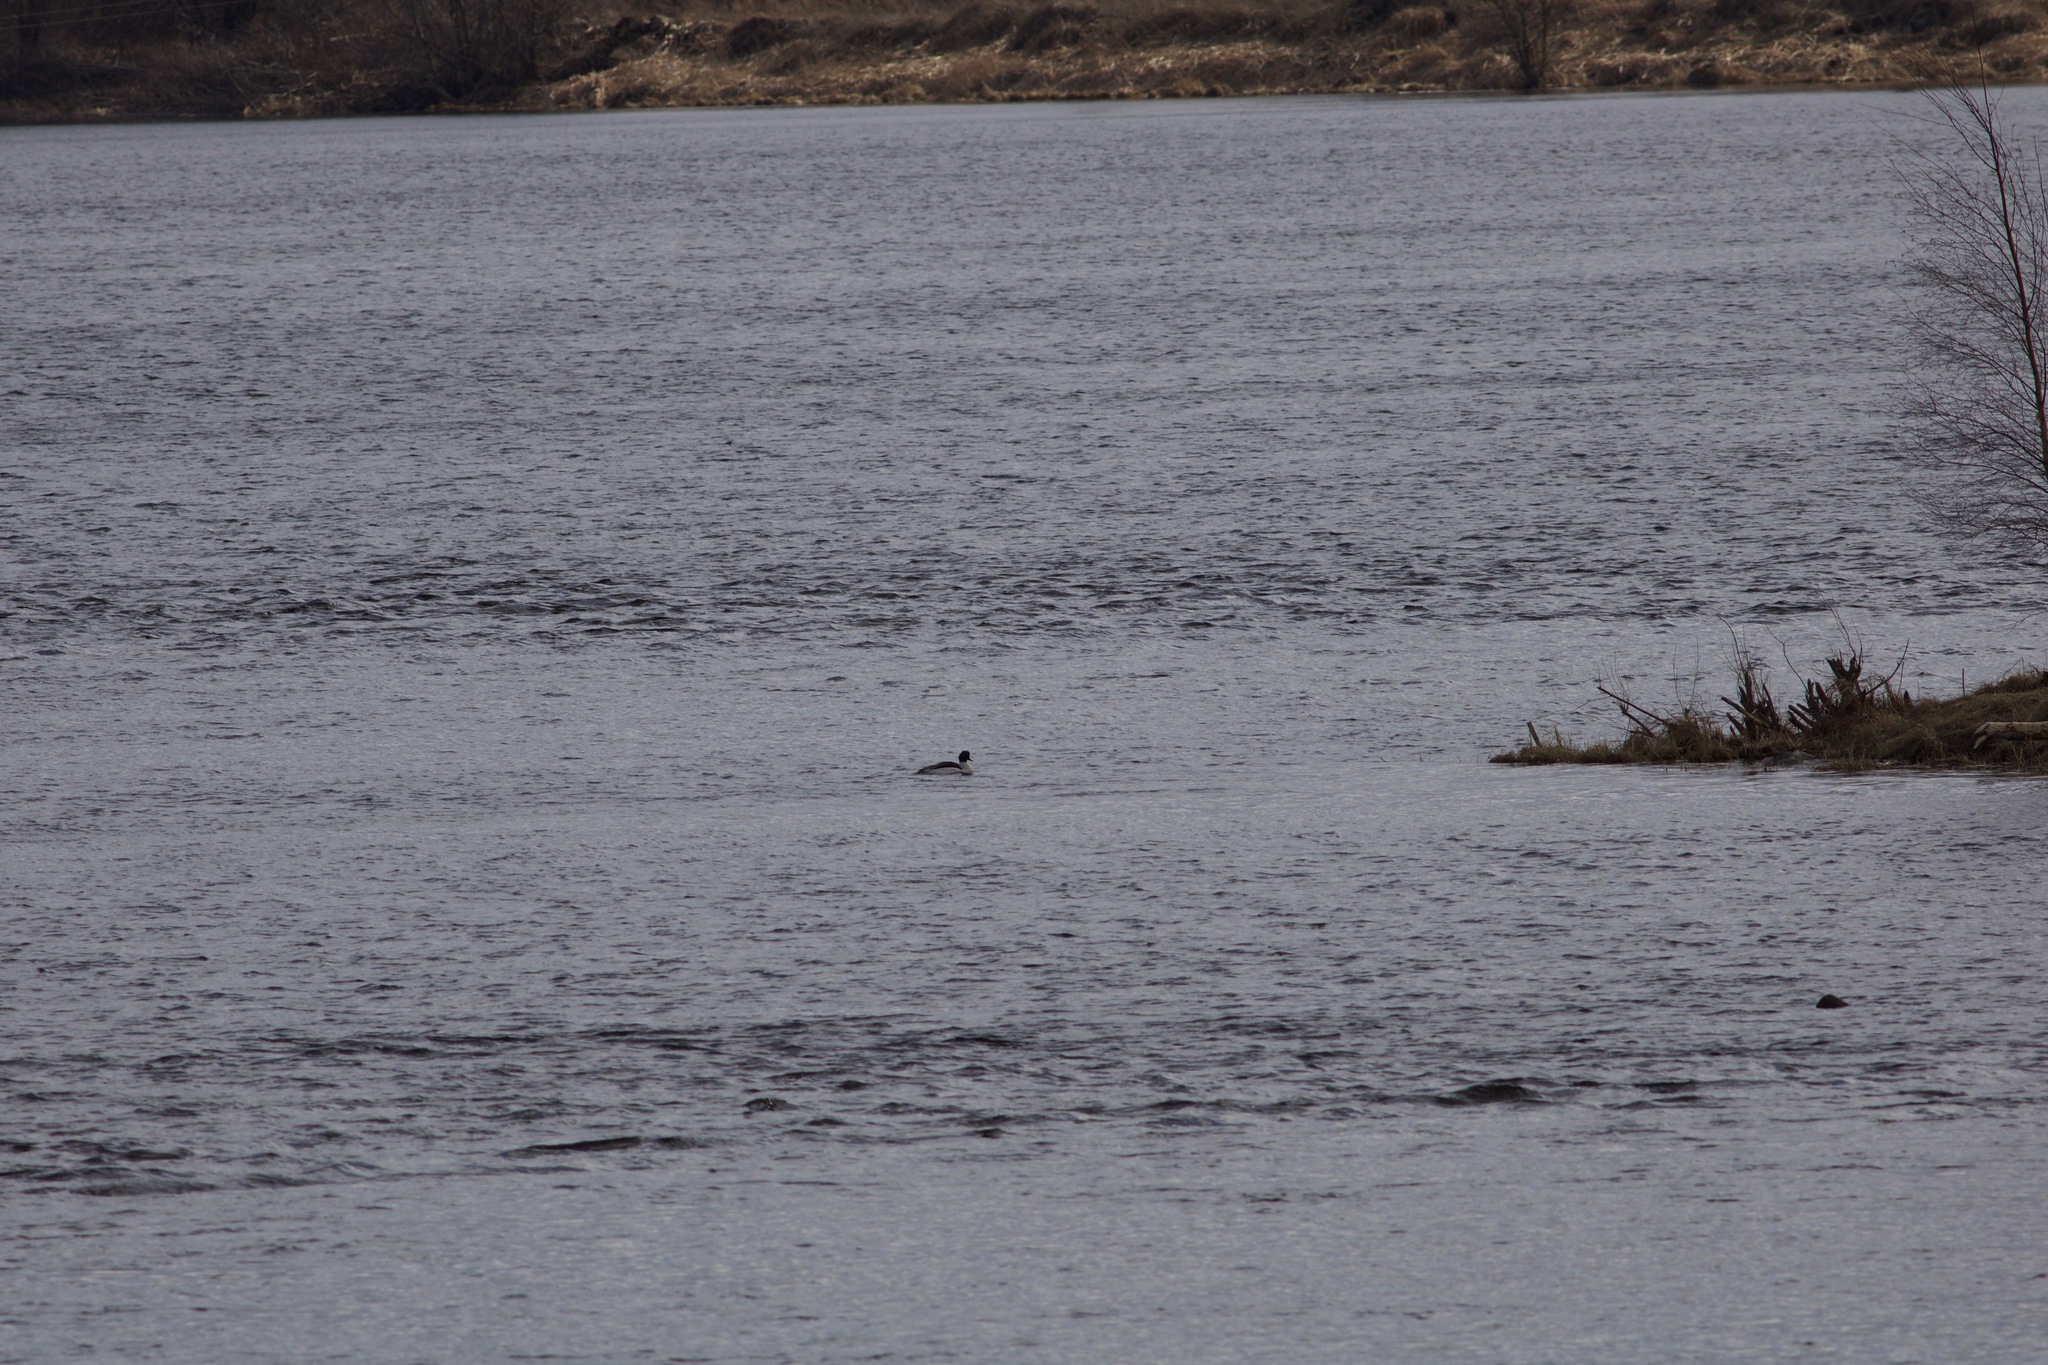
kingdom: Animalia
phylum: Chordata
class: Aves
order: Anseriformes
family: Anatidae
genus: Mergus
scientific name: Mergus merganser
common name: Common merganser
